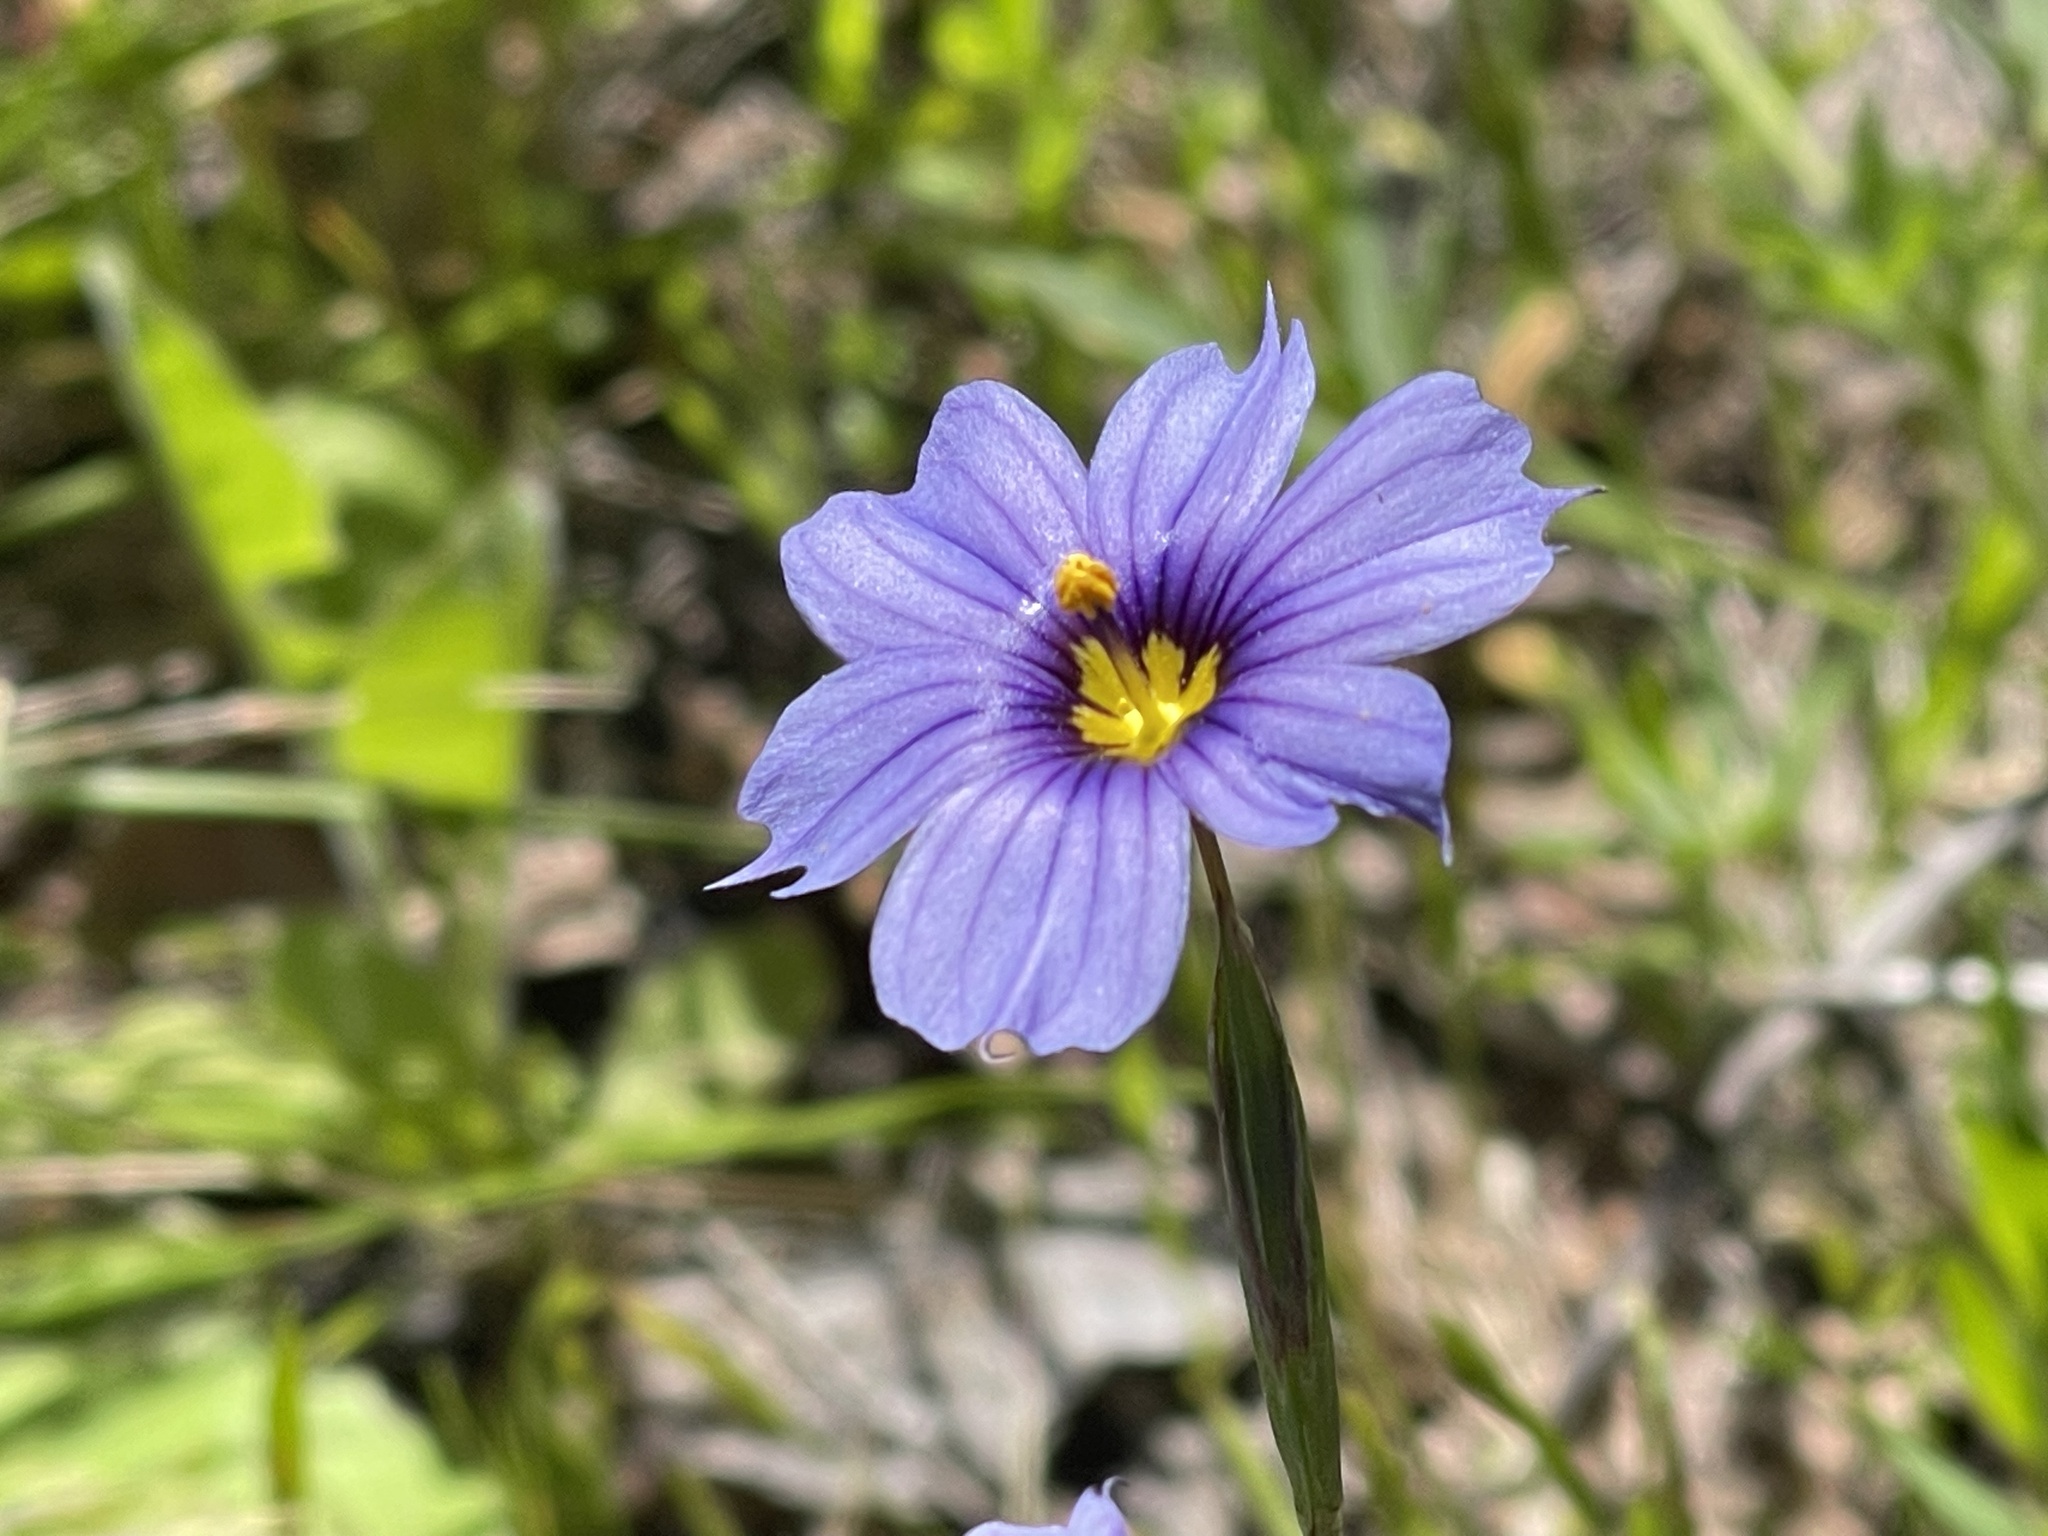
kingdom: Plantae
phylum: Tracheophyta
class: Liliopsida
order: Asparagales
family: Iridaceae
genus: Sisyrinchium
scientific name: Sisyrinchium bellum
